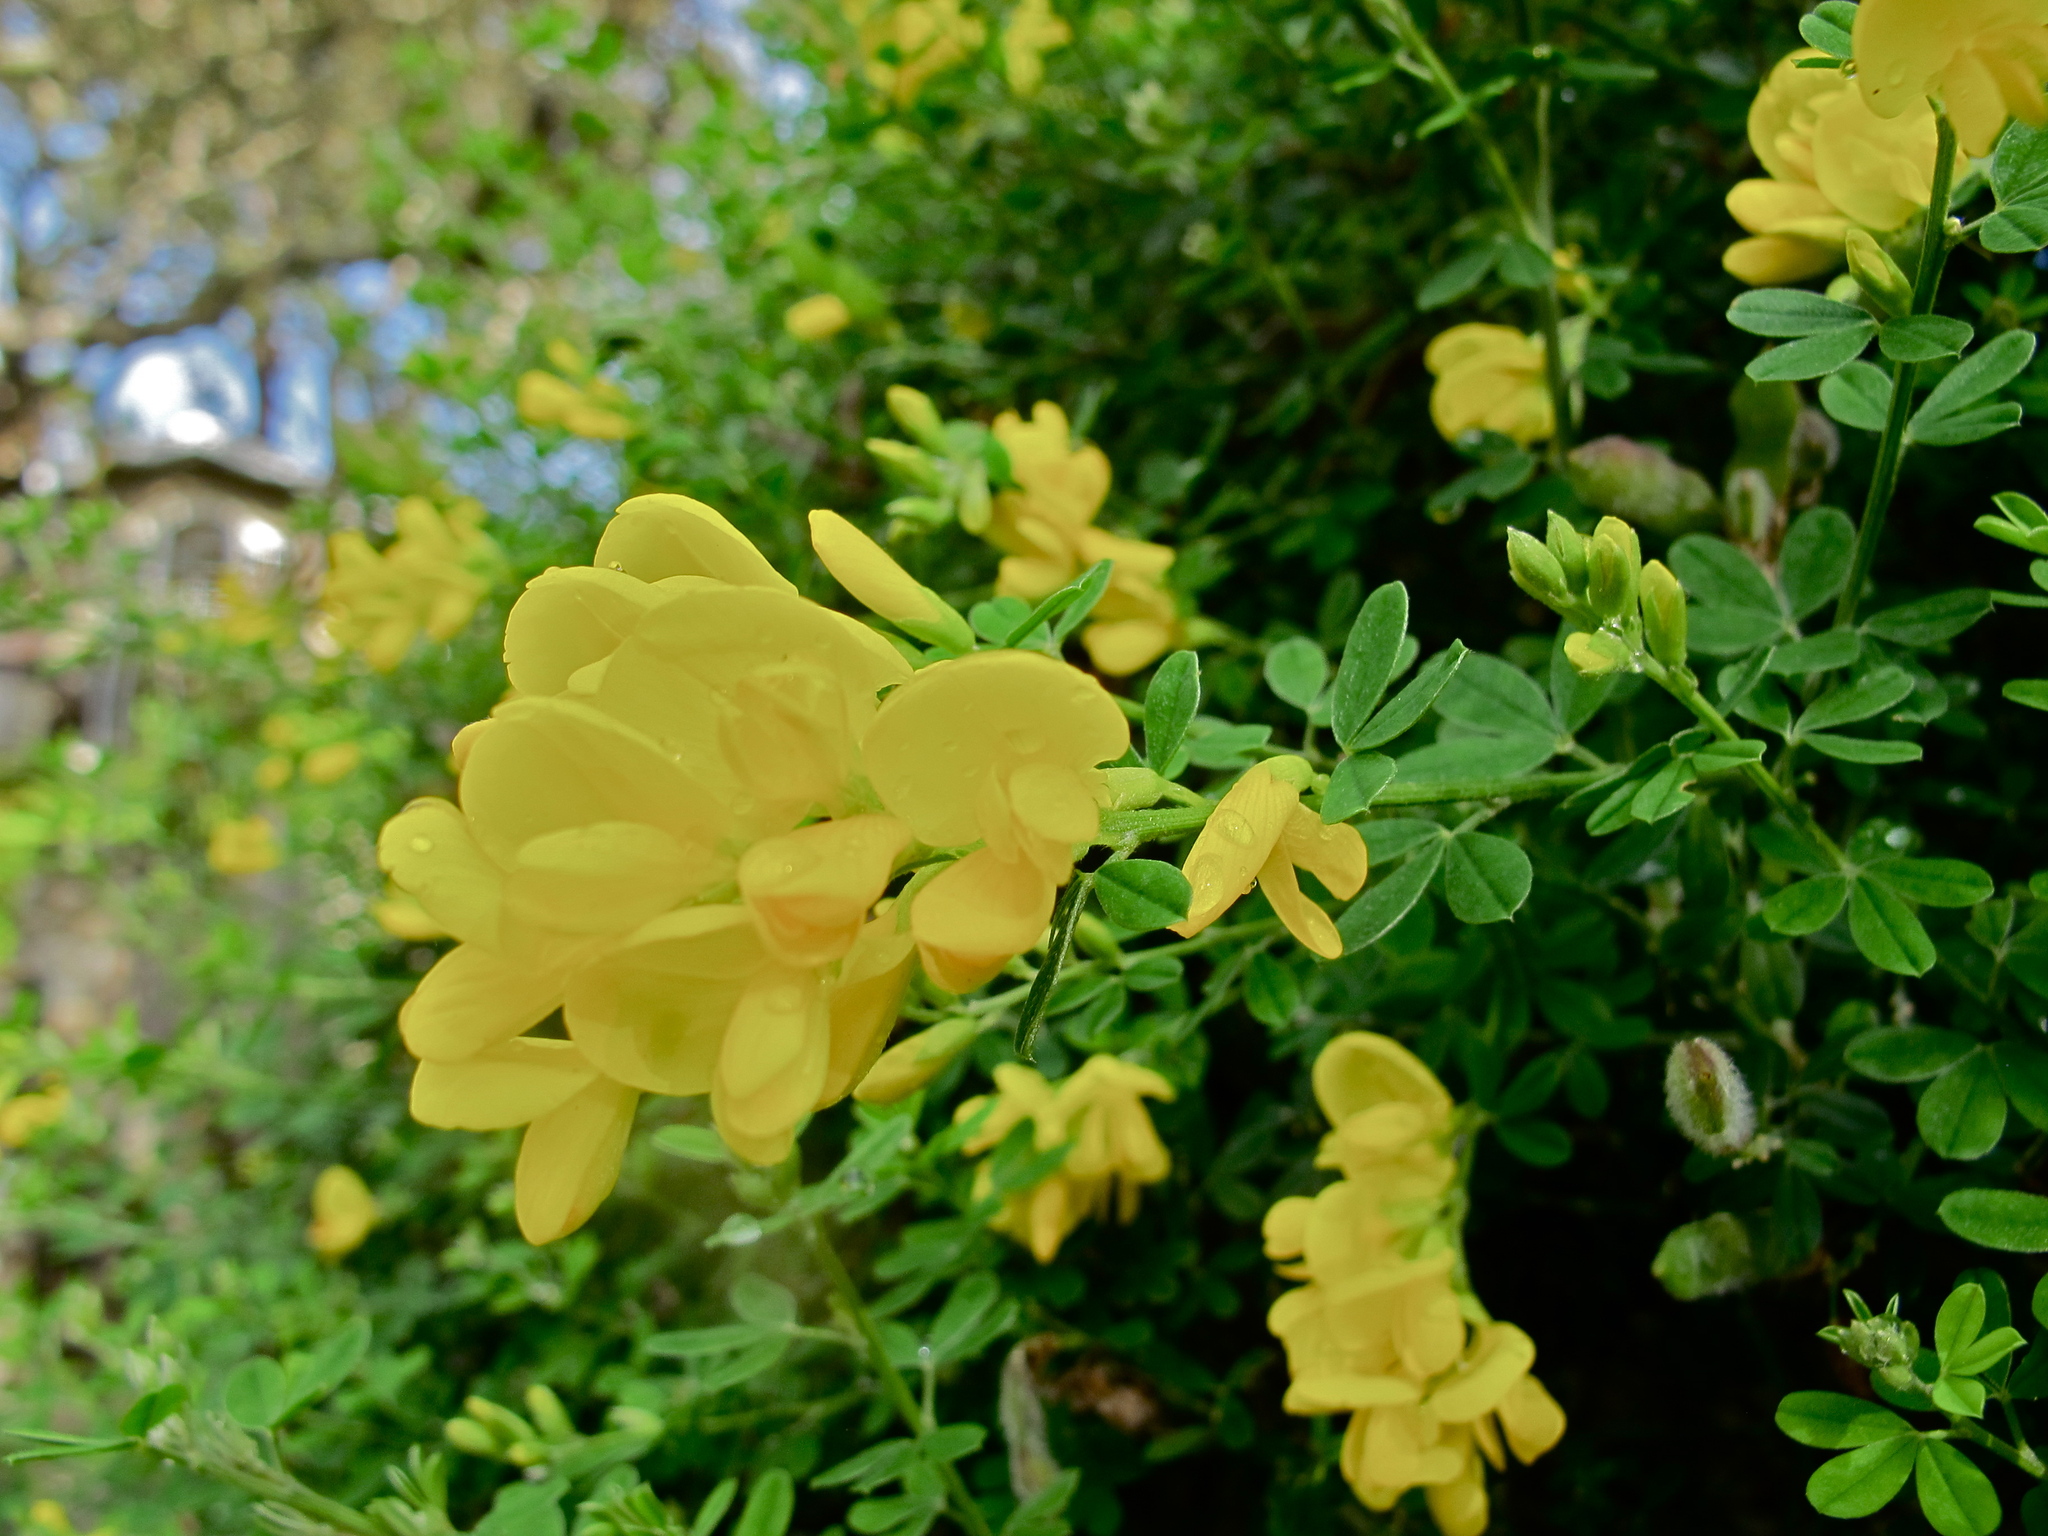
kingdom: Plantae
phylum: Tracheophyta
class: Magnoliopsida
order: Fabales
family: Fabaceae
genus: Genista
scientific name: Genista monspessulana
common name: Montpellier broom
